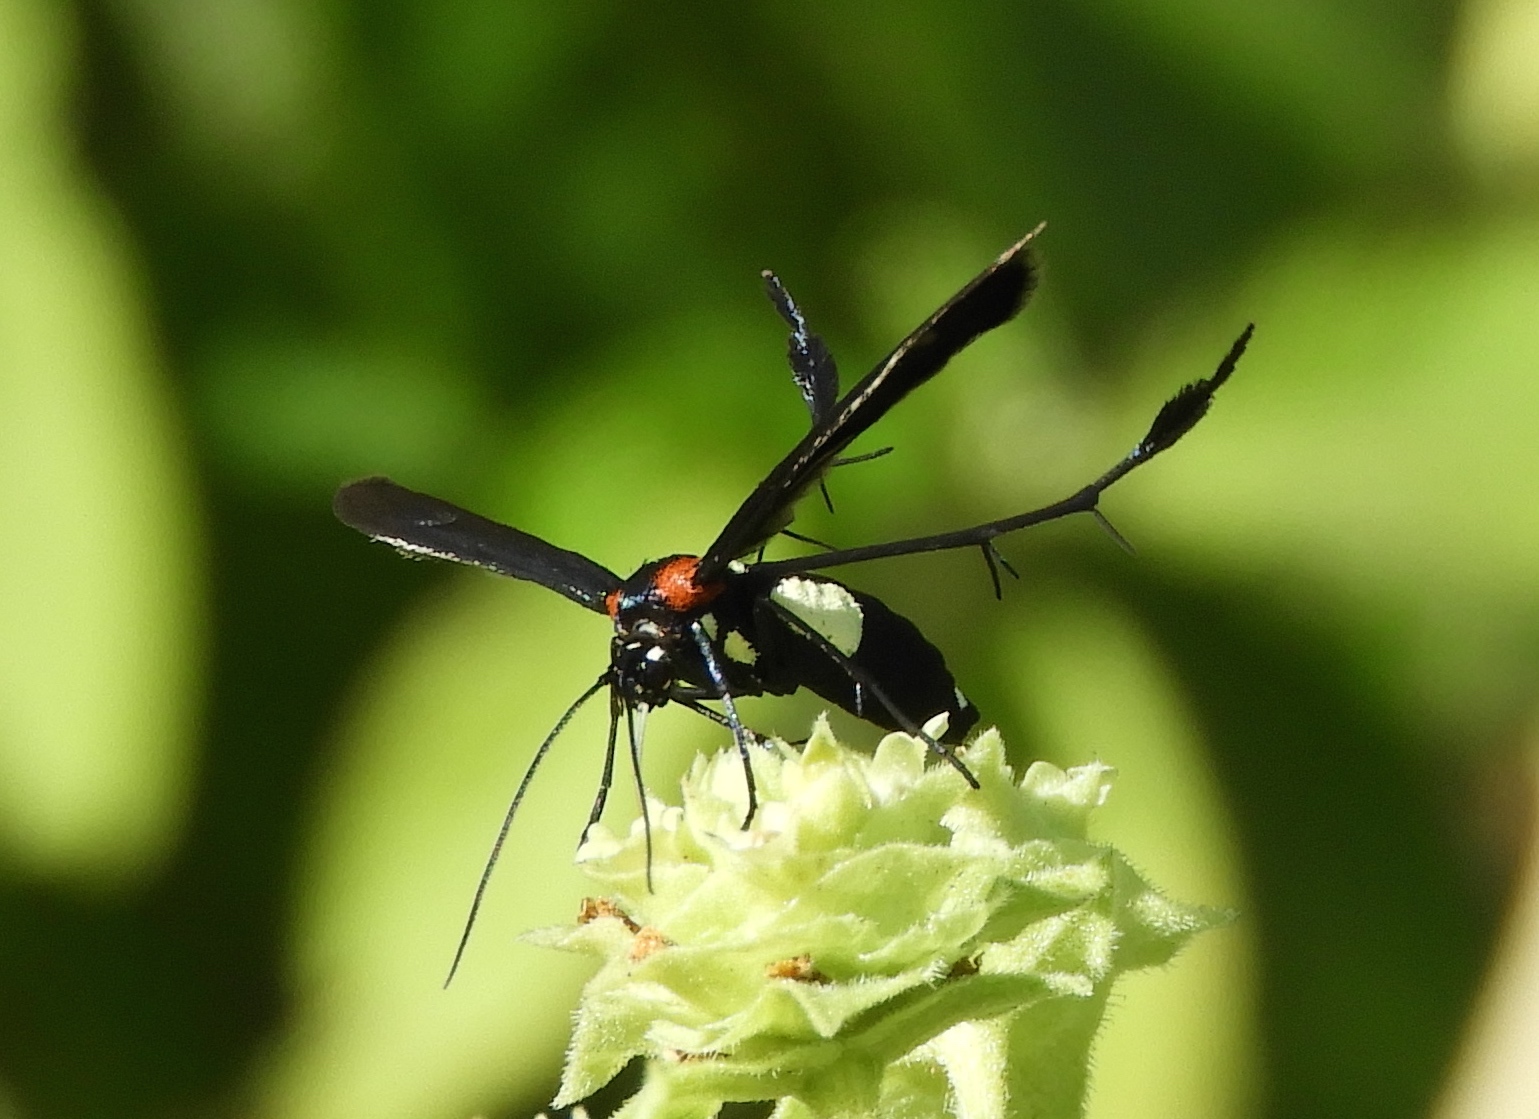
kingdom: Animalia
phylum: Arthropoda
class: Insecta
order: Lepidoptera
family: Pterophoridae
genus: Hellinsia
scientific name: Hellinsia chamelai
